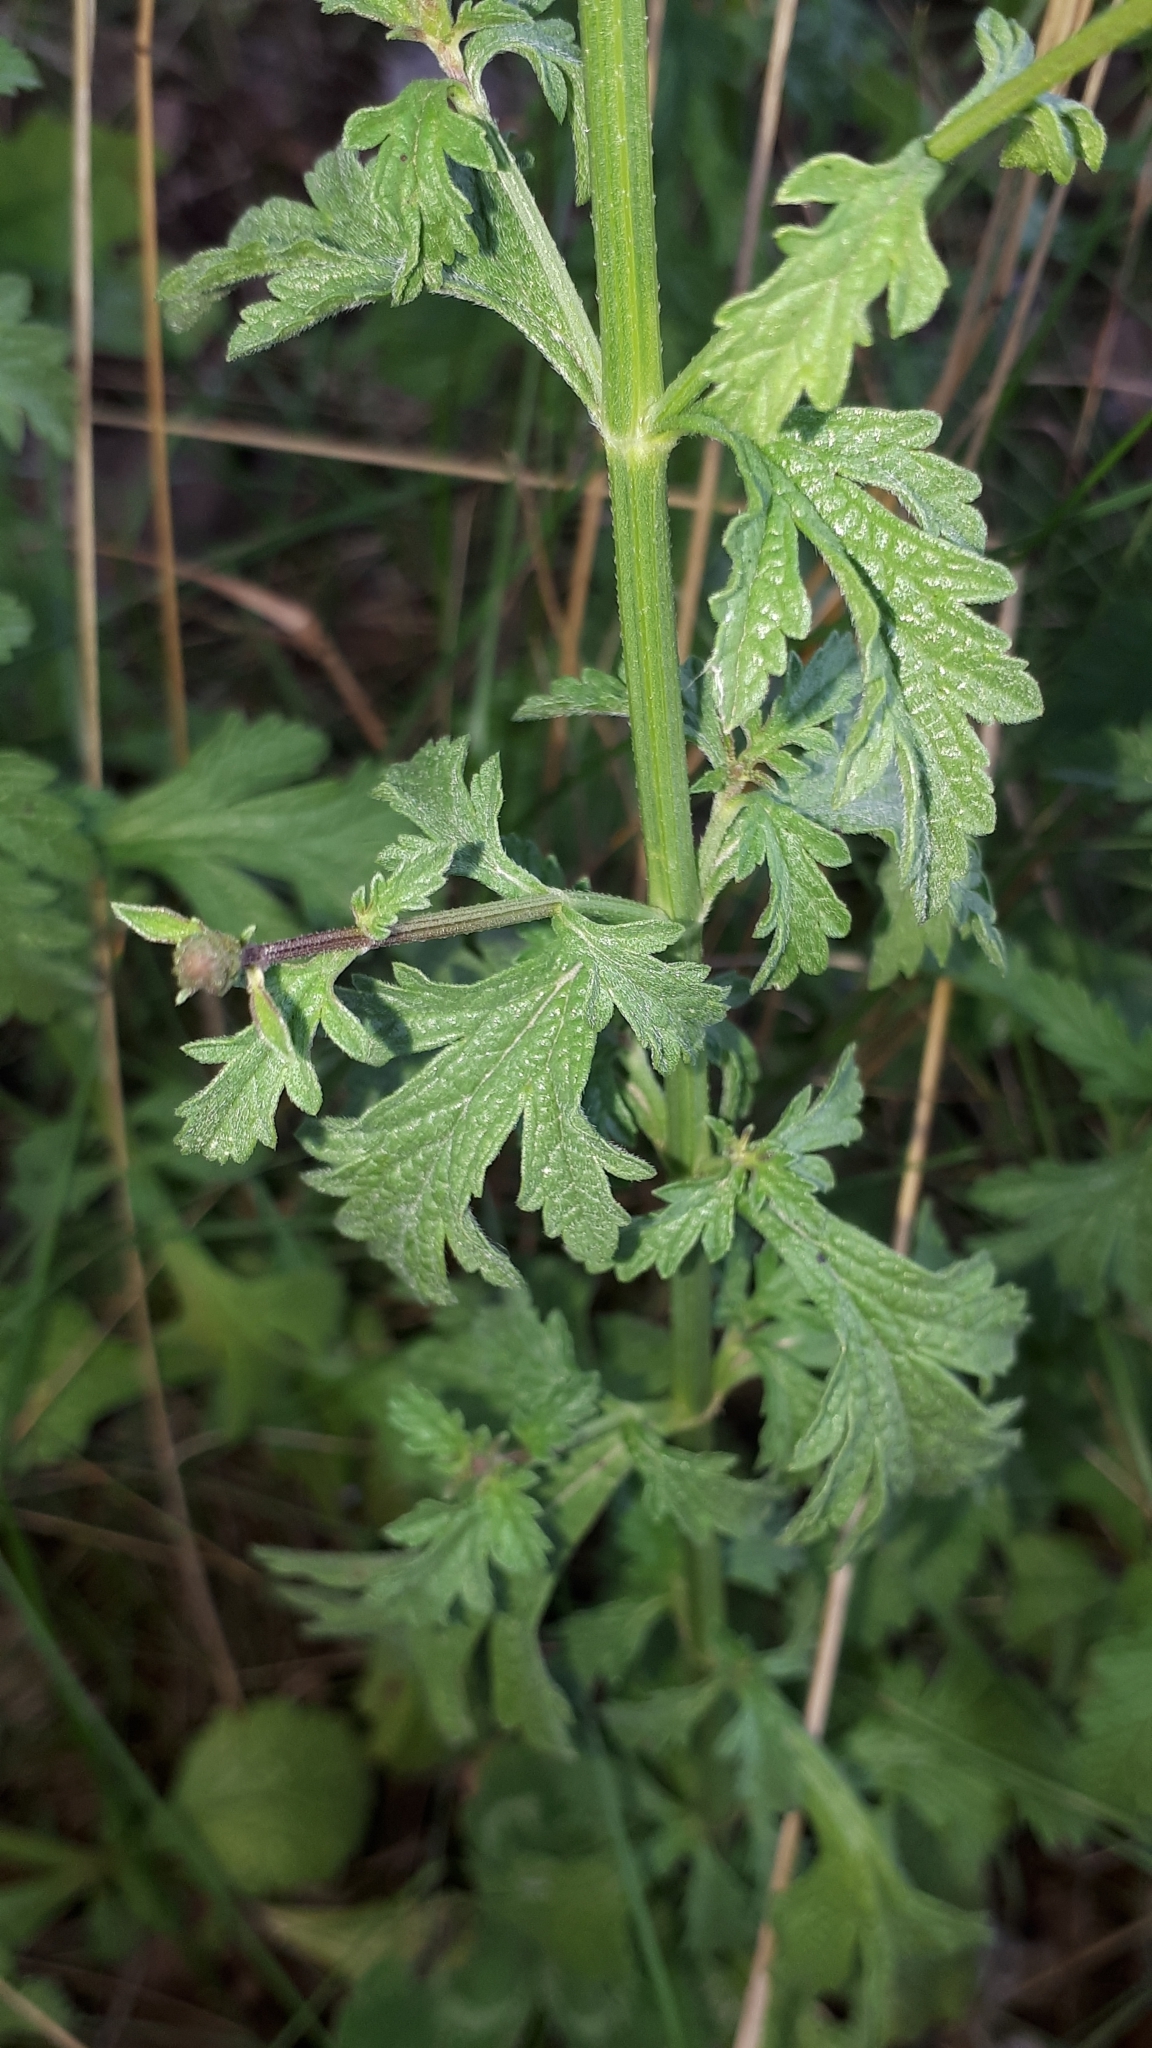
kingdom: Plantae
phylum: Tracheophyta
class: Magnoliopsida
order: Lamiales
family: Verbenaceae
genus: Verbena
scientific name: Verbena officinalis
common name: Vervain
